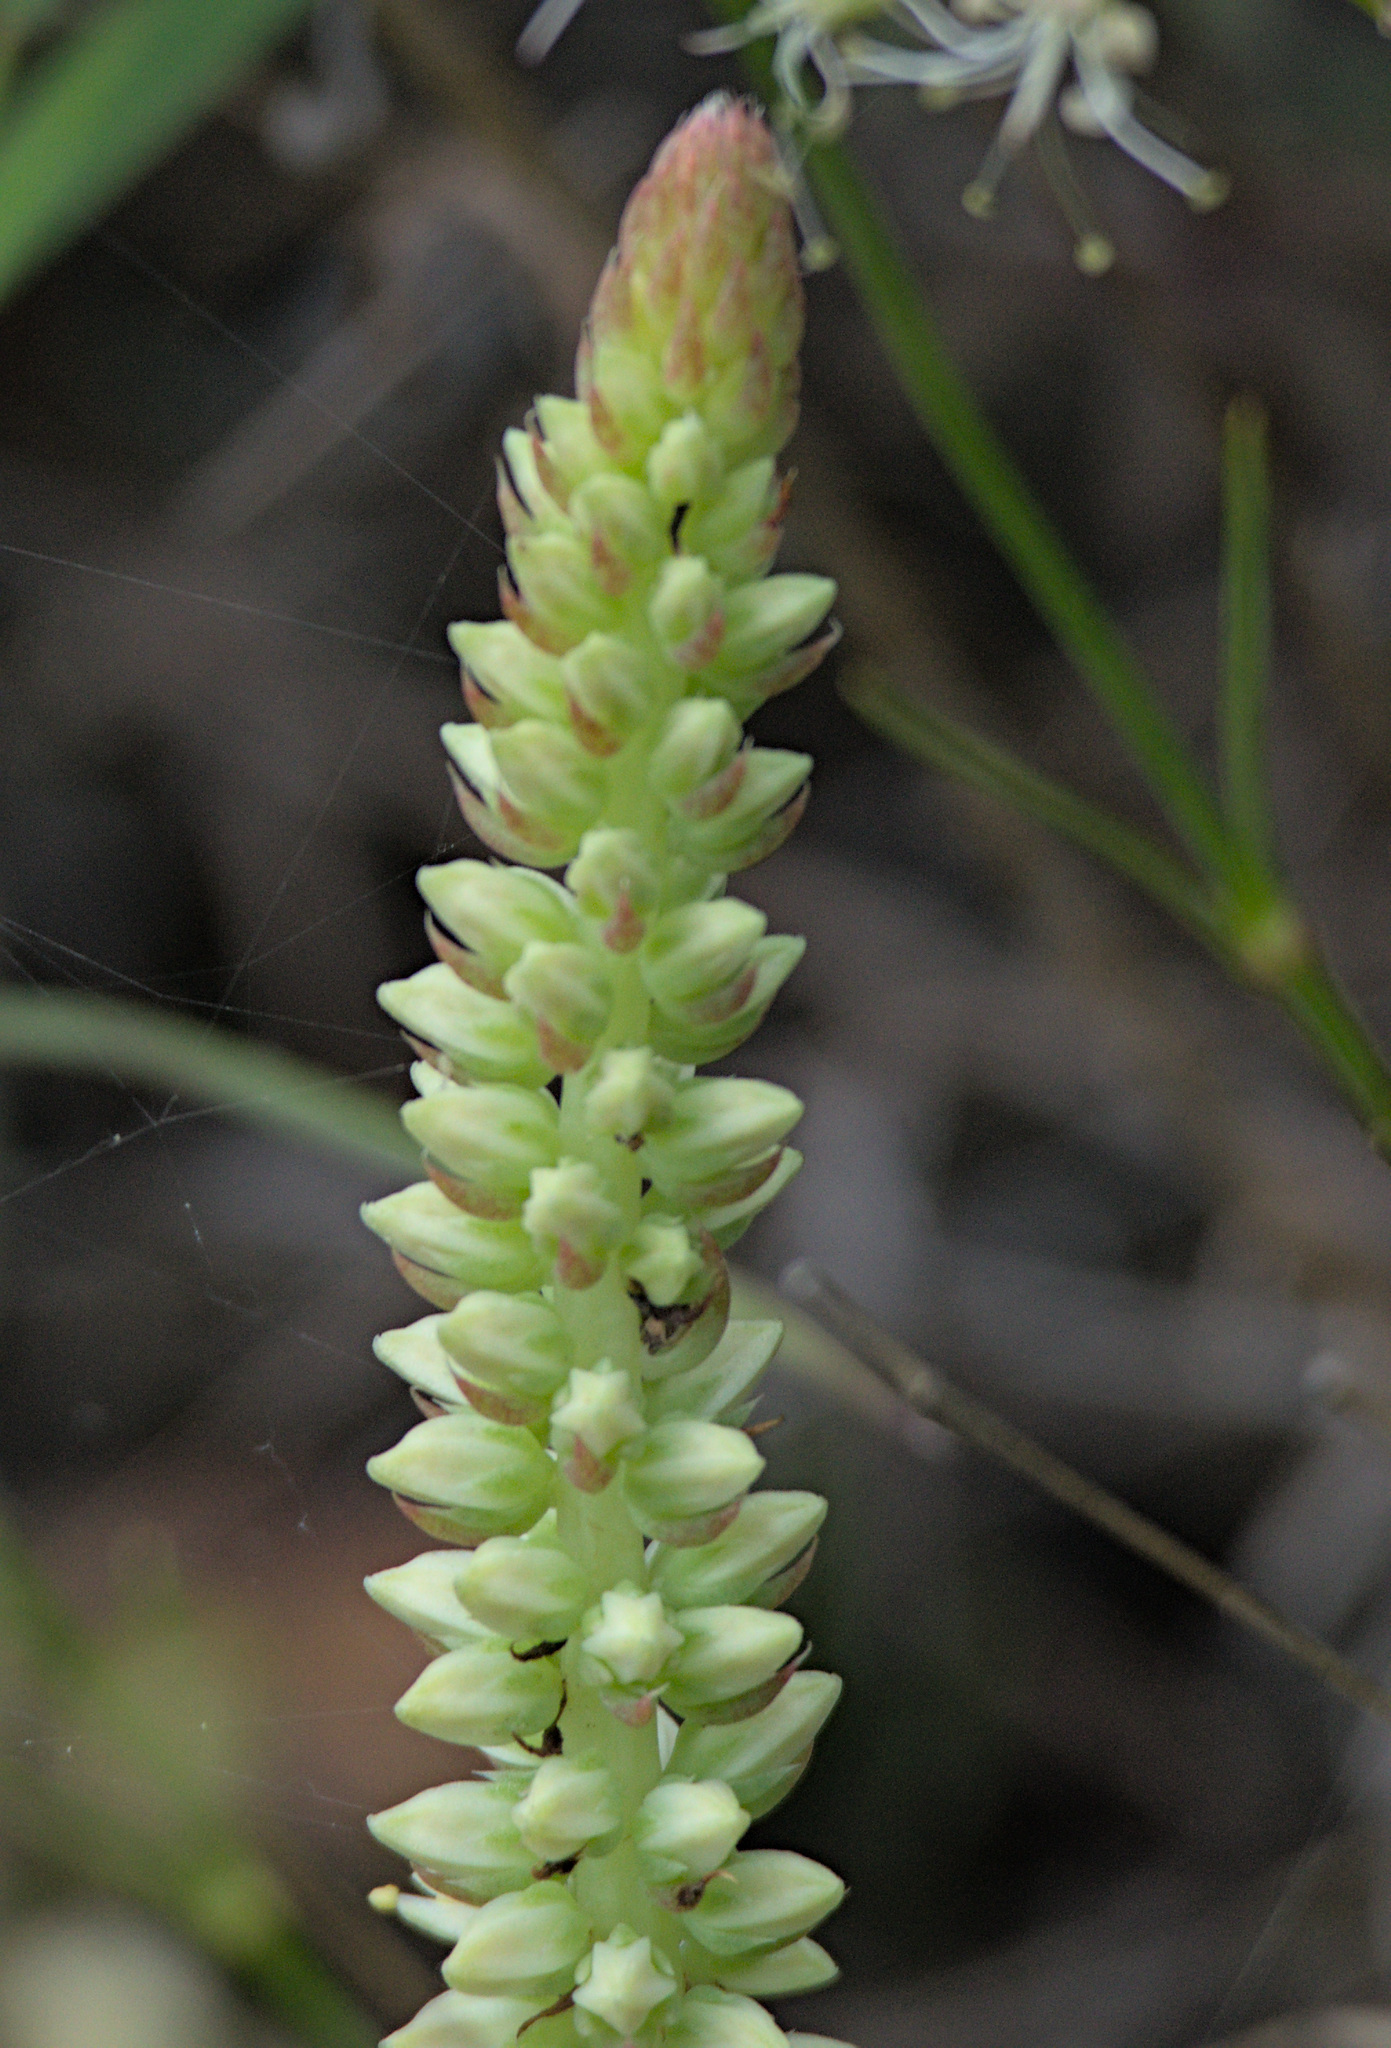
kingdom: Plantae
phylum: Tracheophyta
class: Magnoliopsida
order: Saxifragales
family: Crassulaceae
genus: Orostachys
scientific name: Orostachys spinosa
